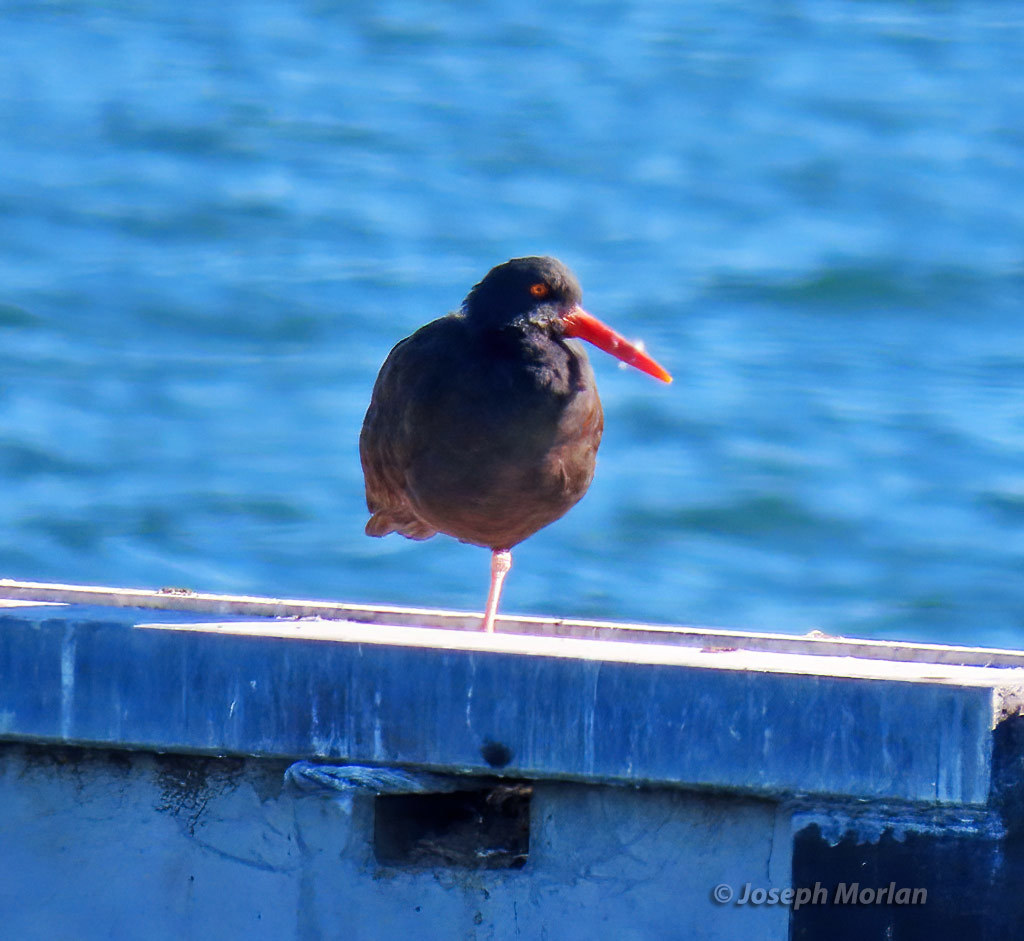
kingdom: Animalia
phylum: Chordata
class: Aves
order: Charadriiformes
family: Haematopodidae
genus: Haematopus
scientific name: Haematopus bachmani
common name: Black oystercatcher
